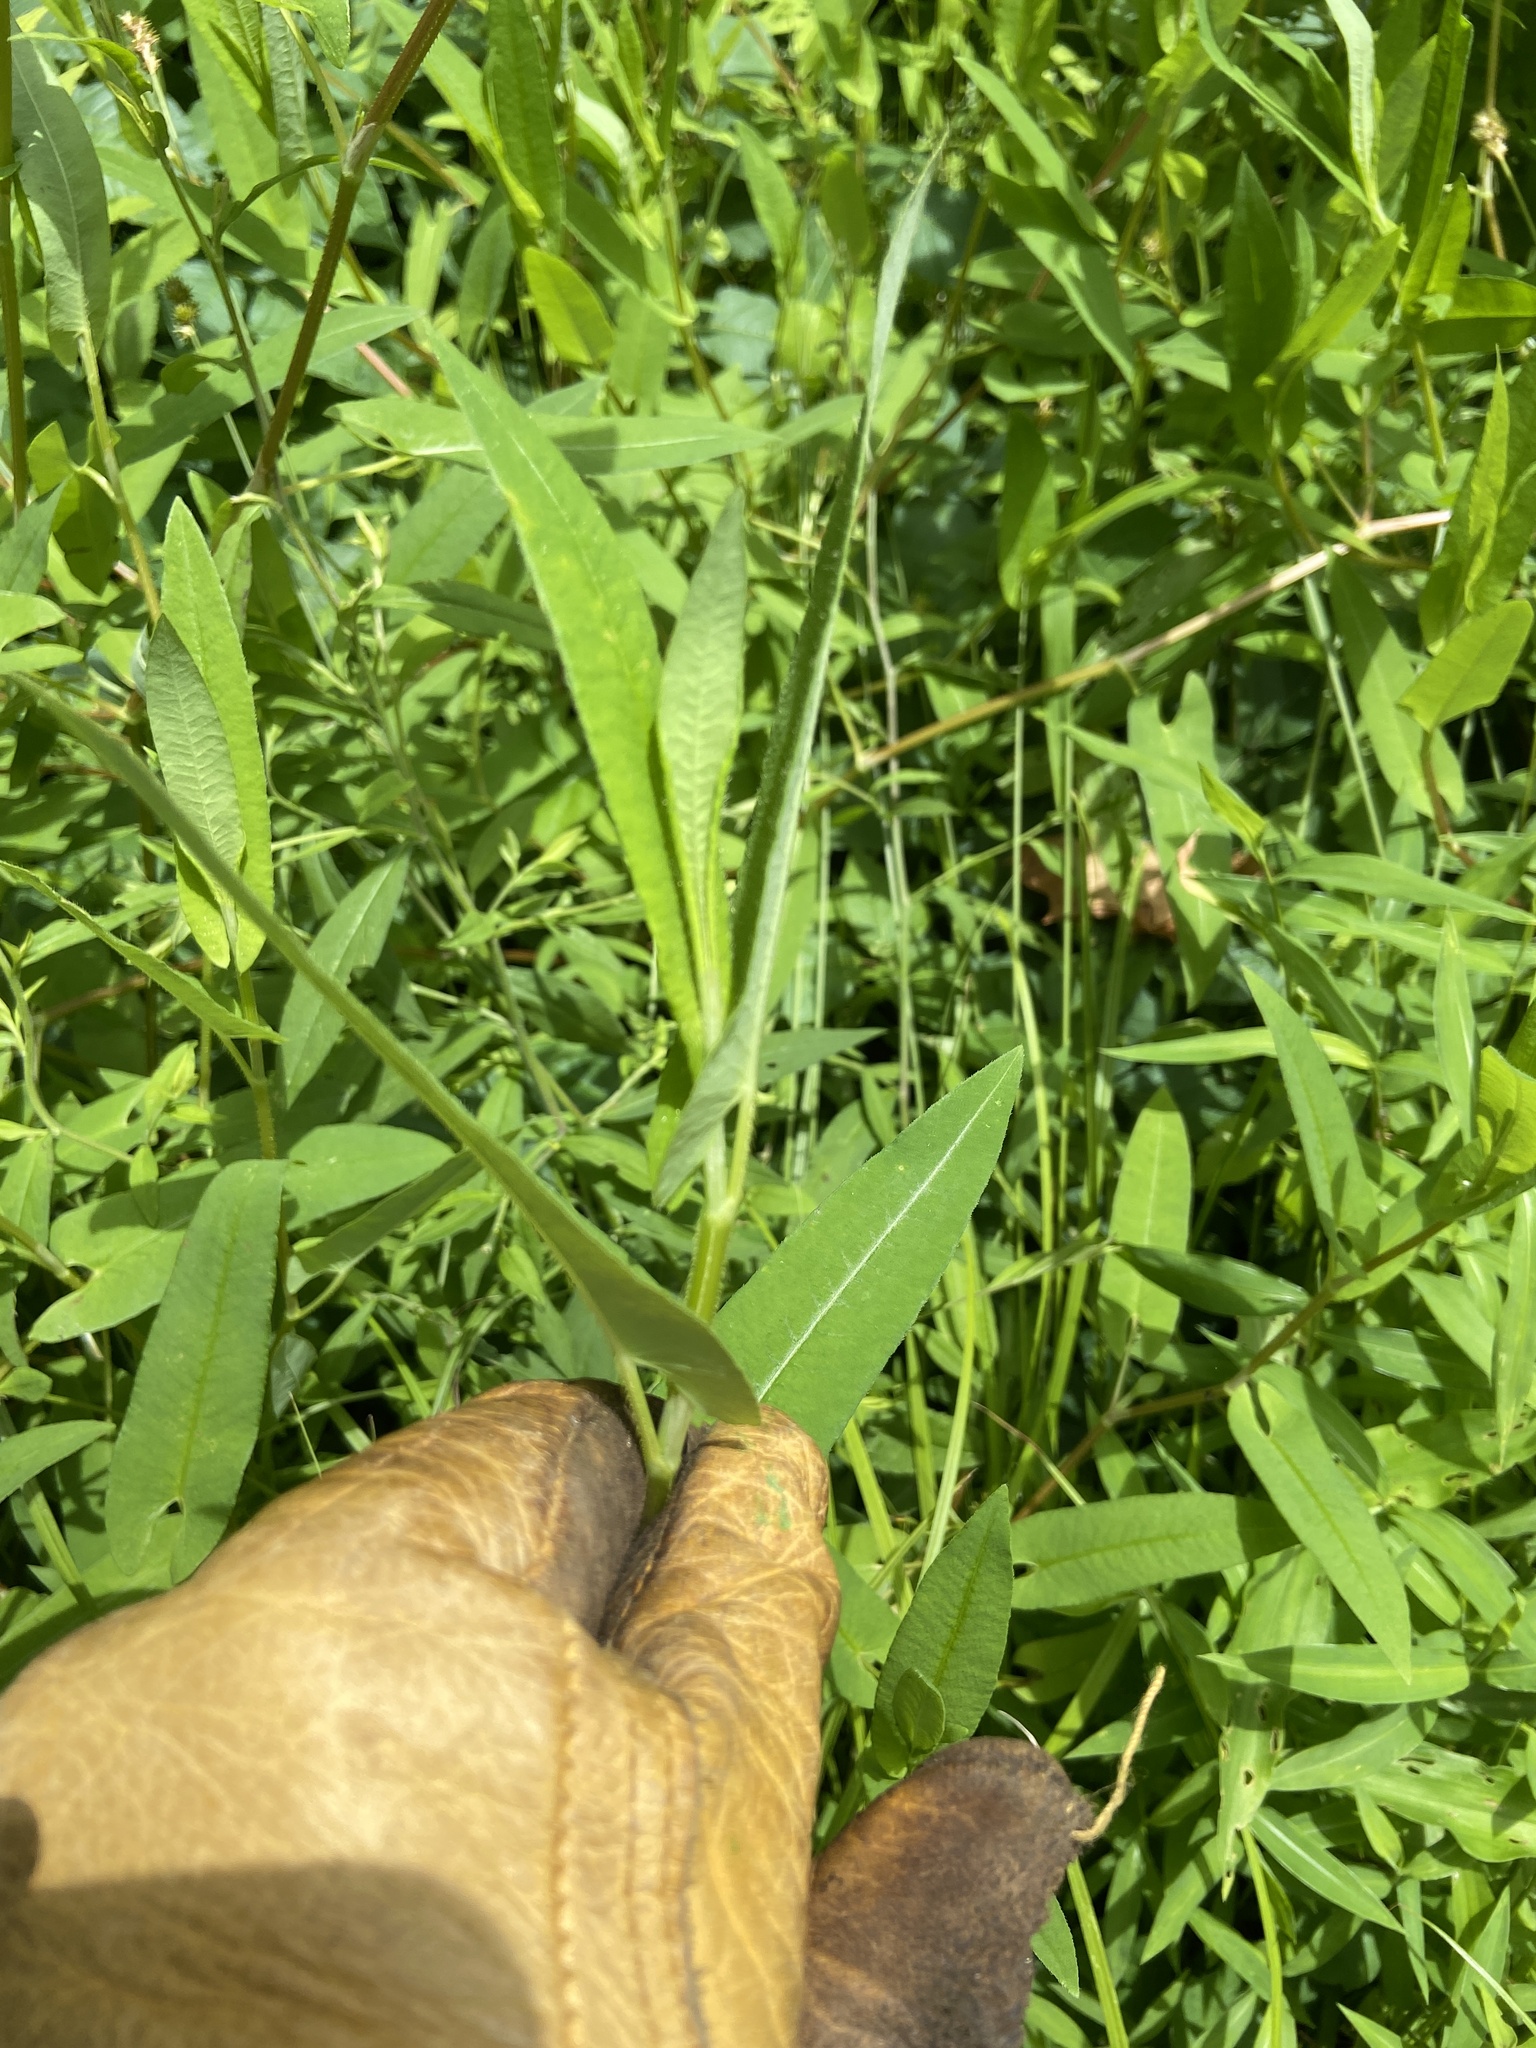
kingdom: Plantae
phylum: Tracheophyta
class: Magnoliopsida
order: Caryophyllales
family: Polygonaceae
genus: Persicaria
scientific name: Persicaria sagittata
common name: American tearthumb
